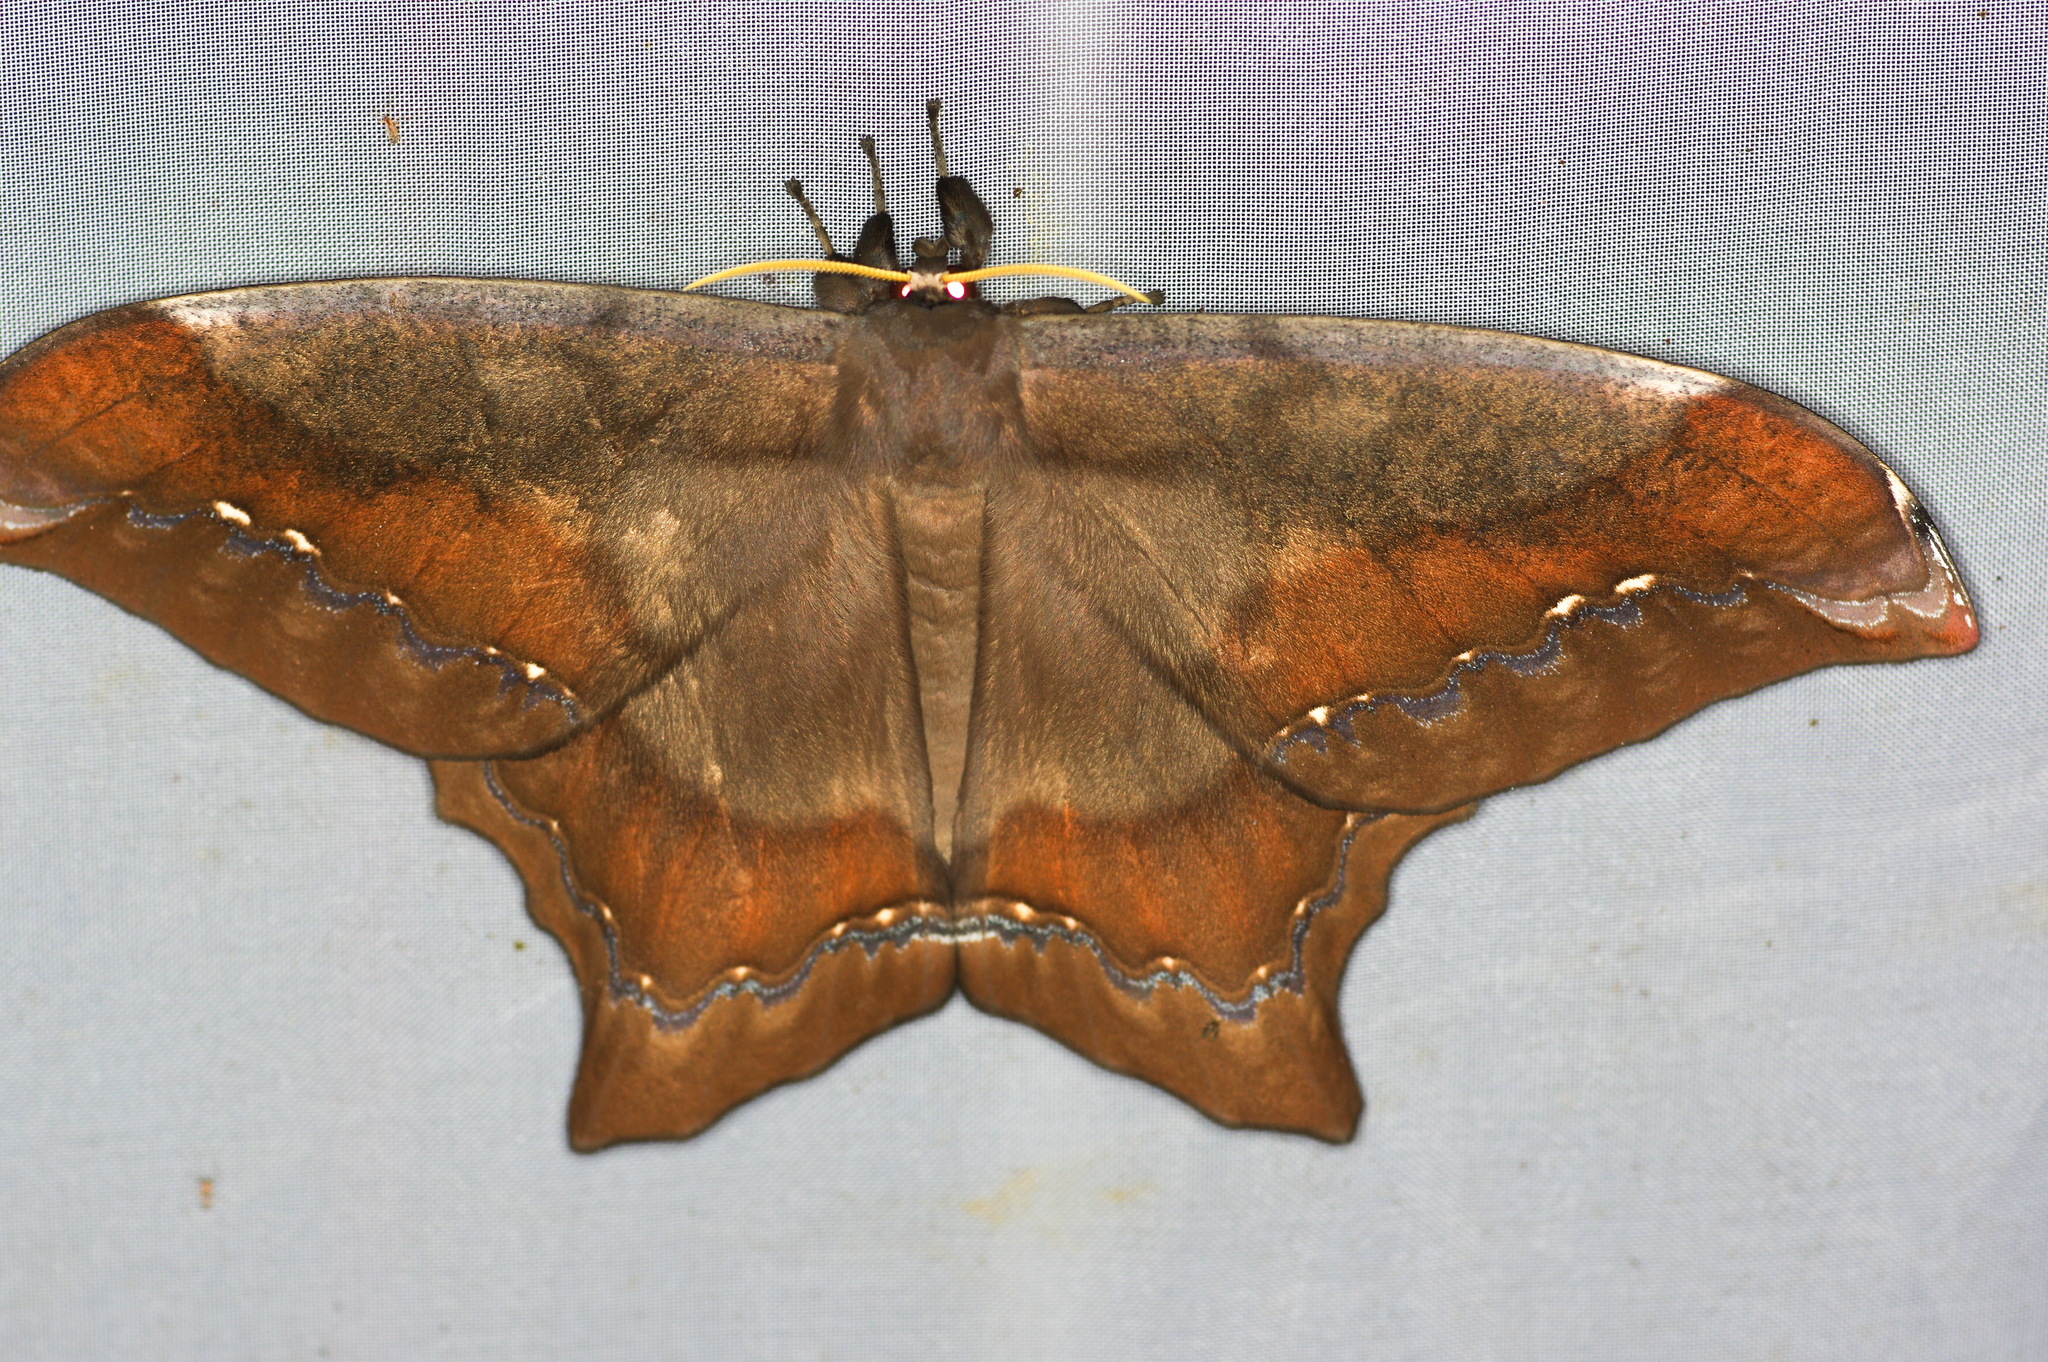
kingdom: Animalia
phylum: Arthropoda
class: Insecta
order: Lepidoptera
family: Saturniidae
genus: Arsenura
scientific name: Arsenura batesii
